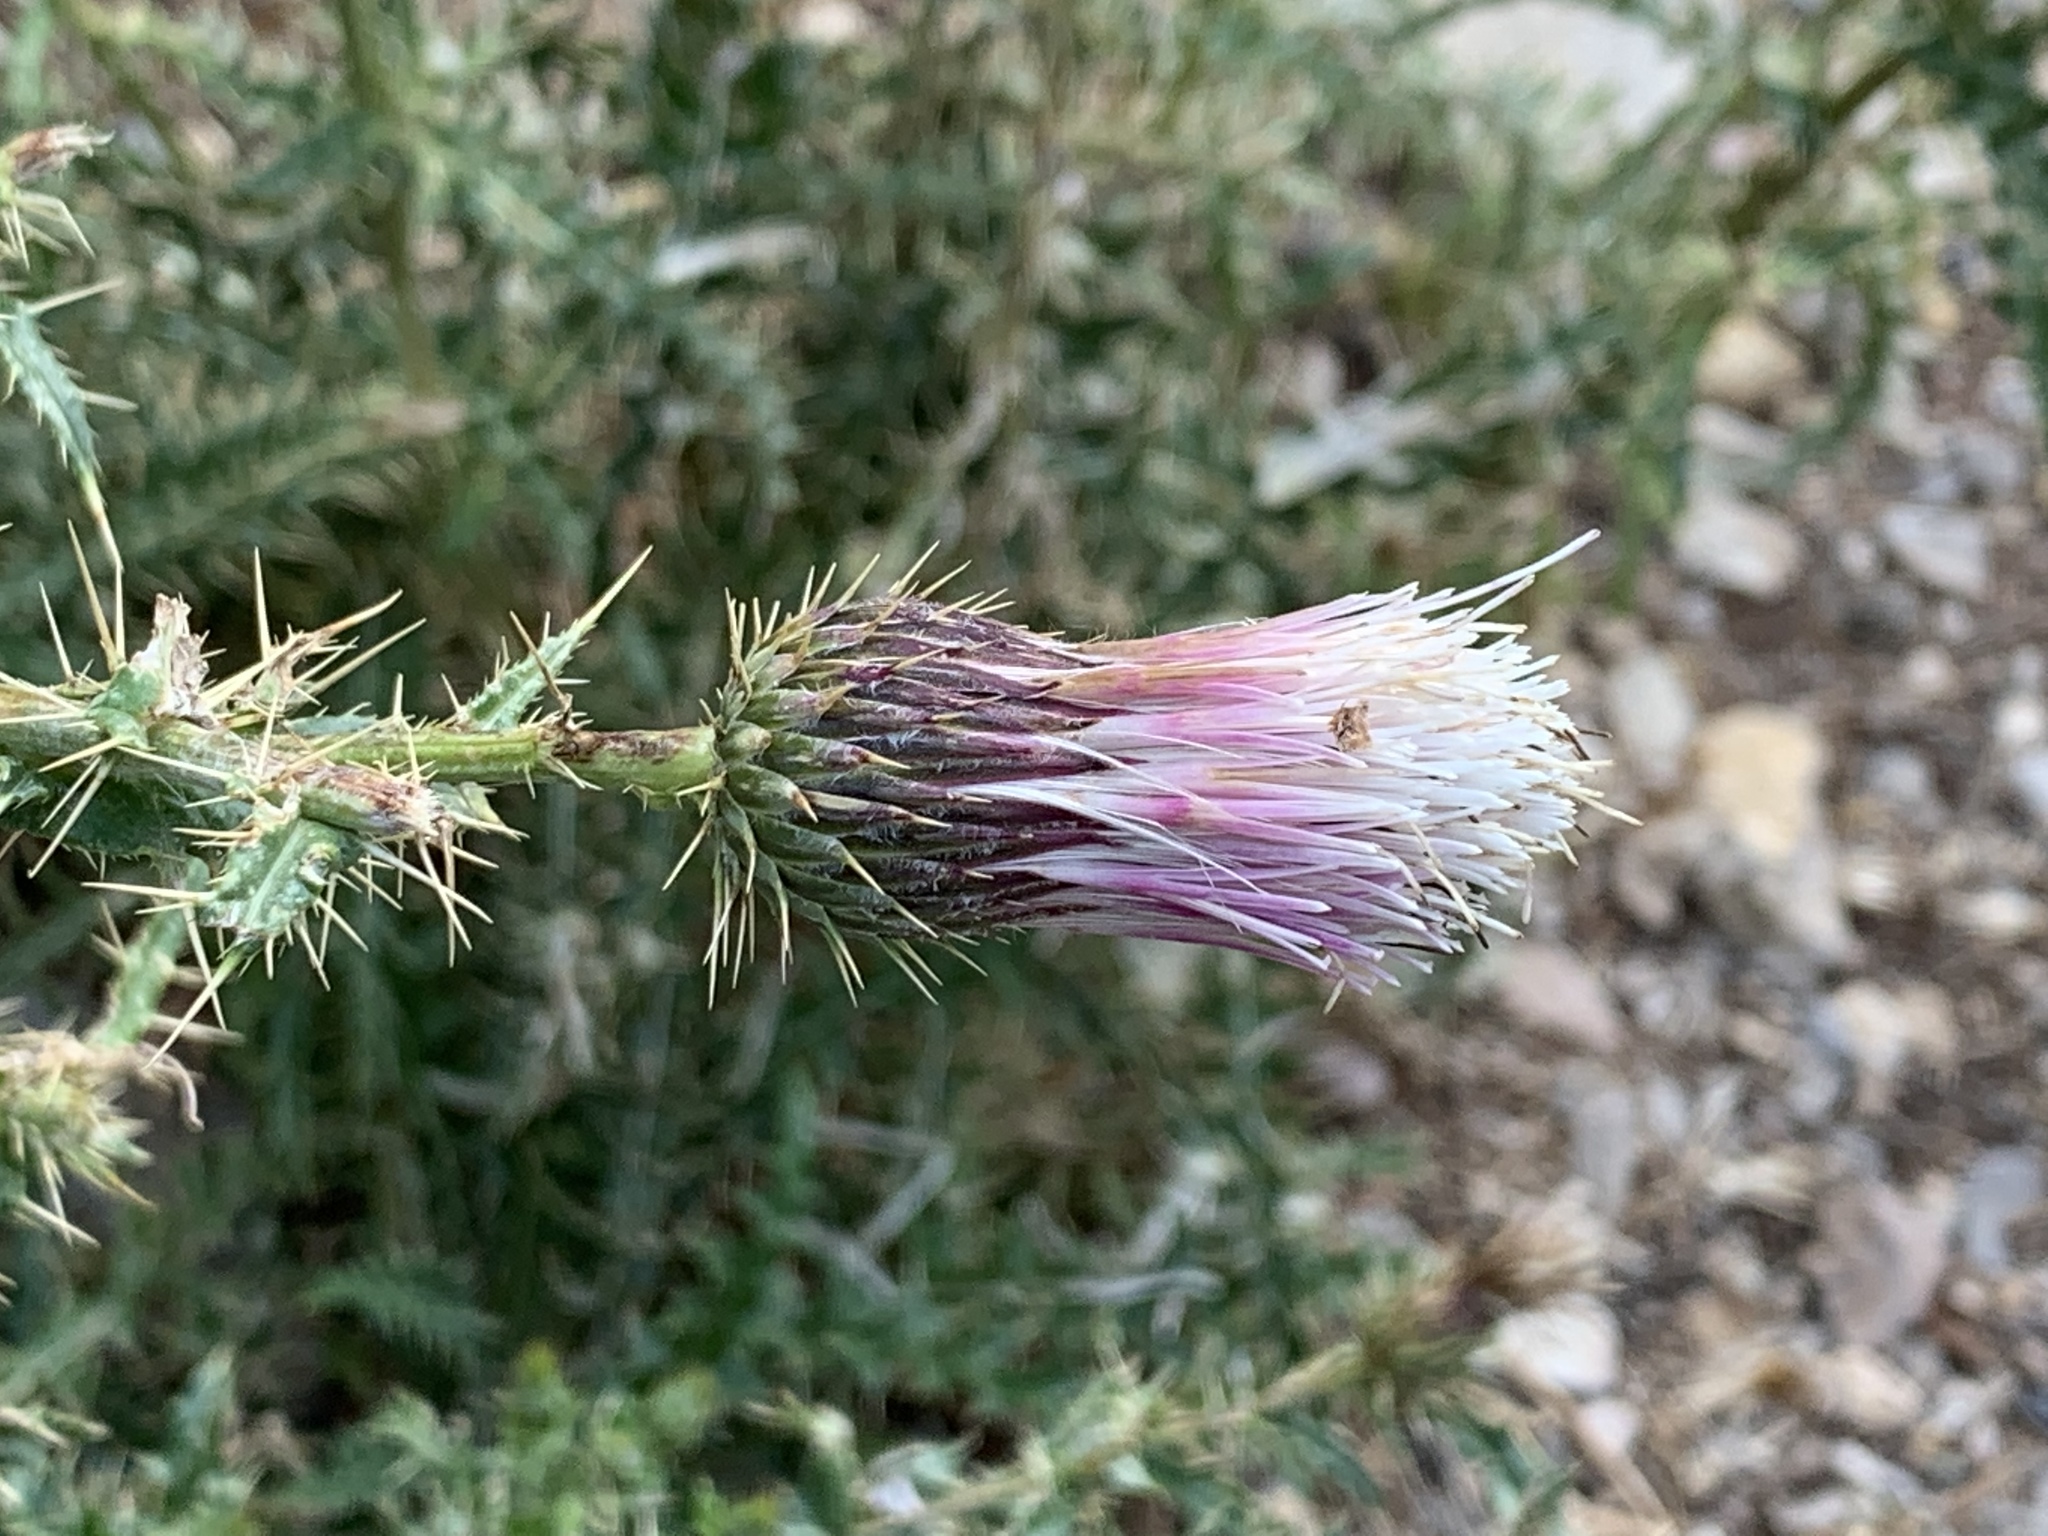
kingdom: Plantae
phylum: Tracheophyta
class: Magnoliopsida
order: Asterales
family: Asteraceae
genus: Cirsium
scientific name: Cirsium arizonicum
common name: Arizona thistle
